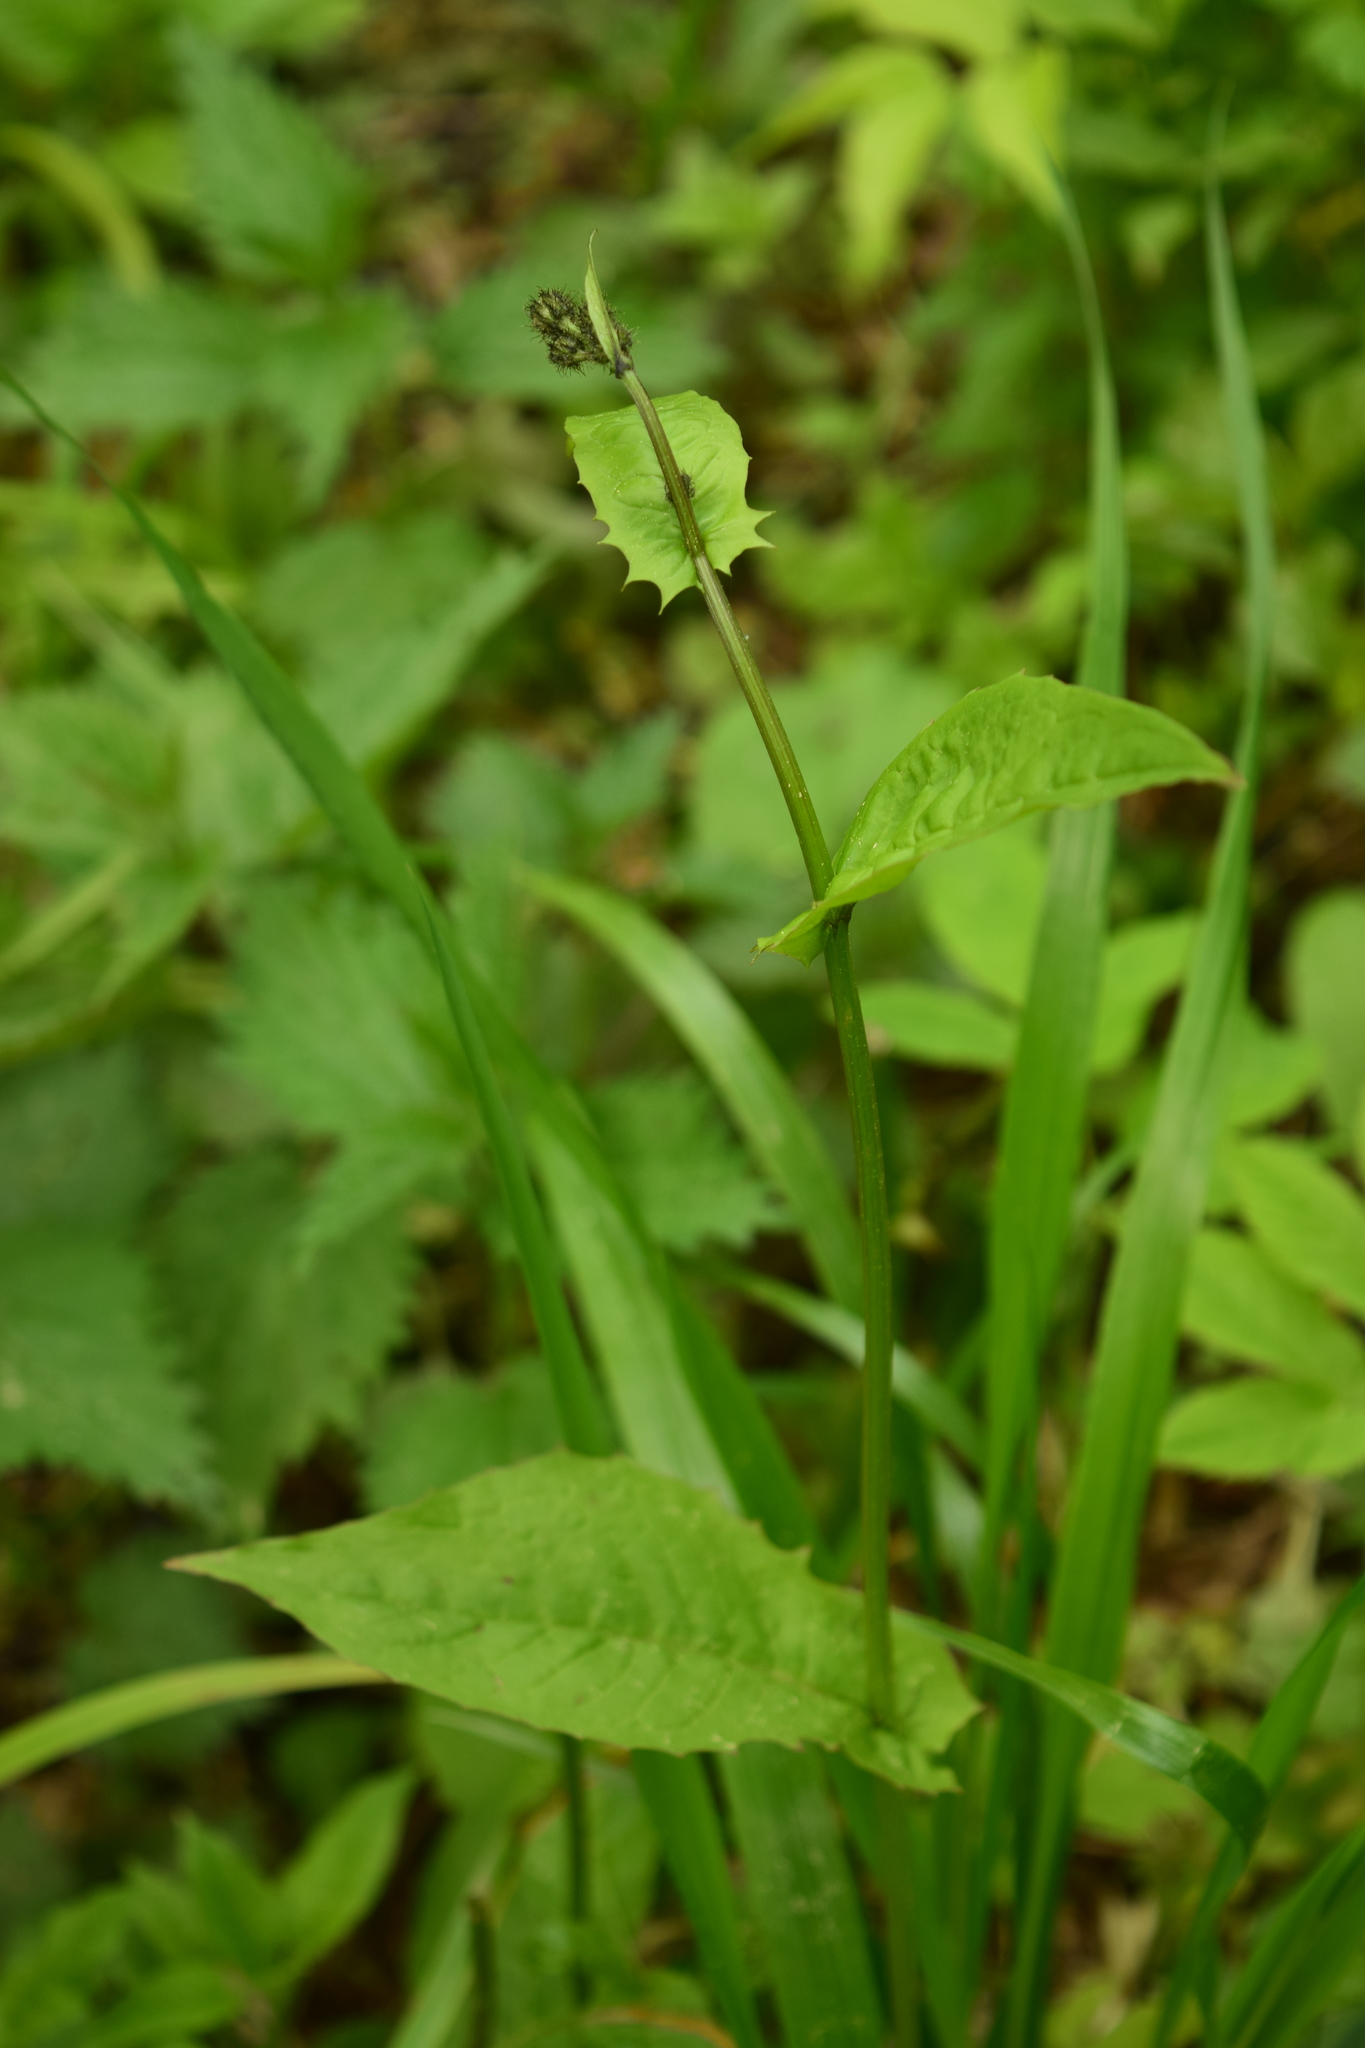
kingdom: Plantae
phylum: Tracheophyta
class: Magnoliopsida
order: Asterales
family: Asteraceae
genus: Crepis
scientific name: Crepis paludosa
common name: Marsh hawk's-beard
